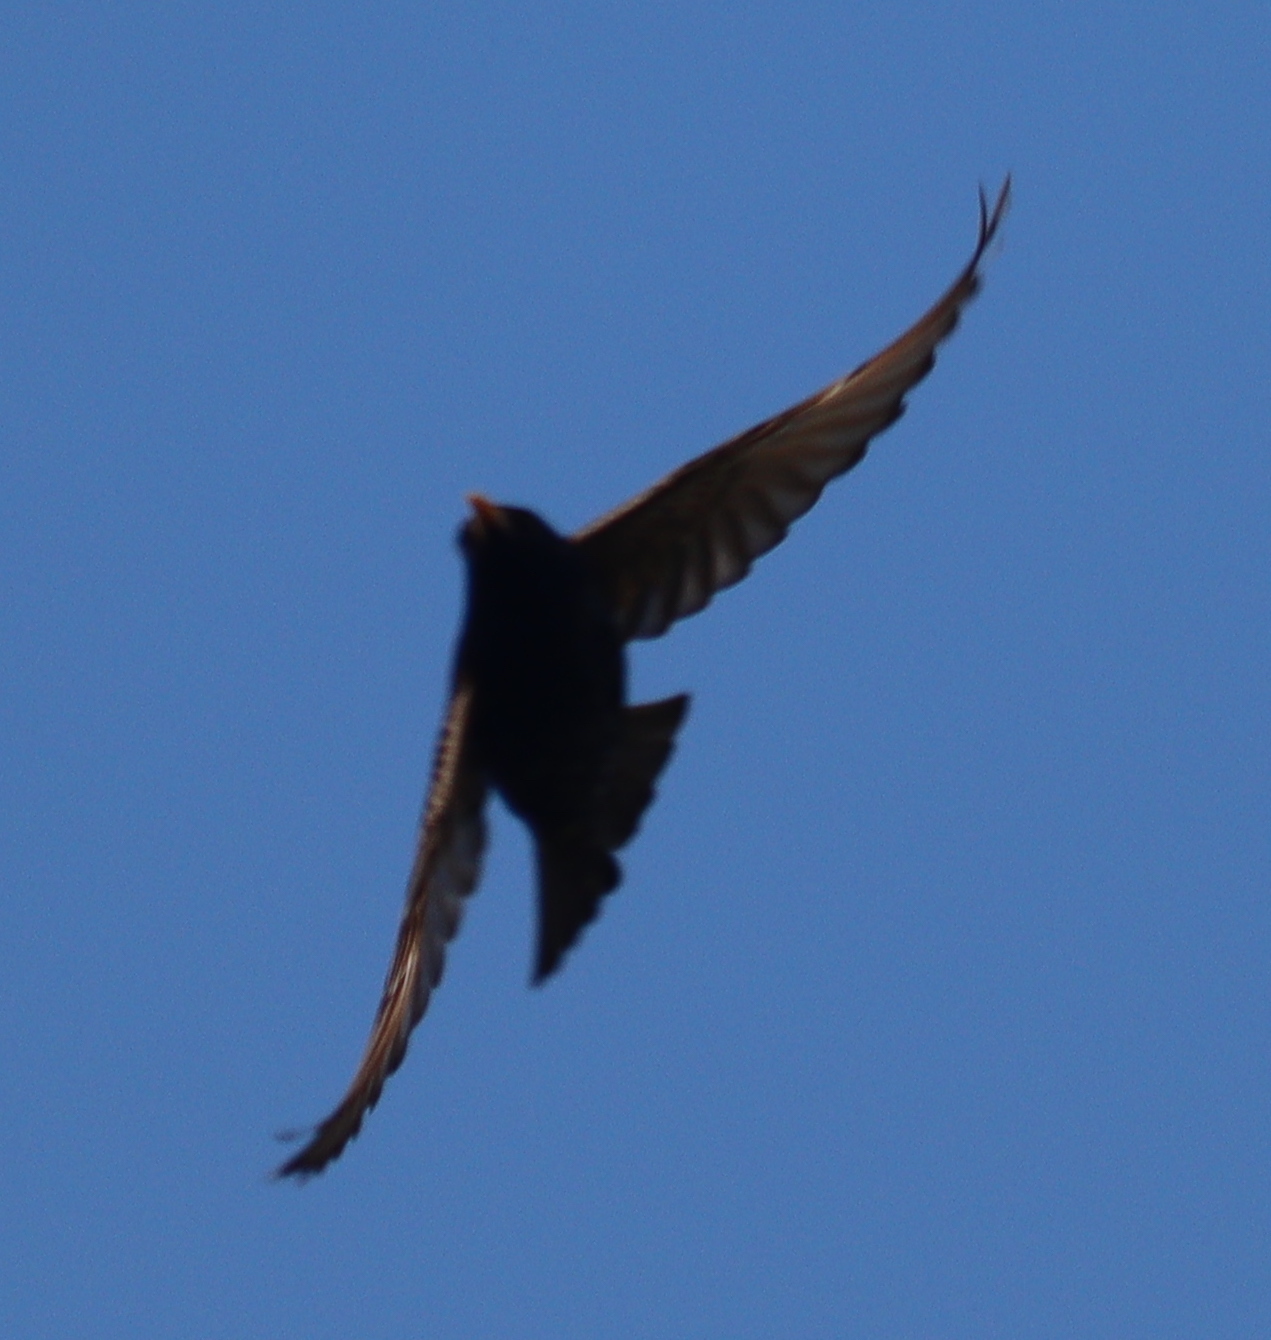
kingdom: Animalia
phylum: Chordata
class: Aves
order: Passeriformes
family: Turdidae
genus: Turdus
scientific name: Turdus merula
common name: Common blackbird
